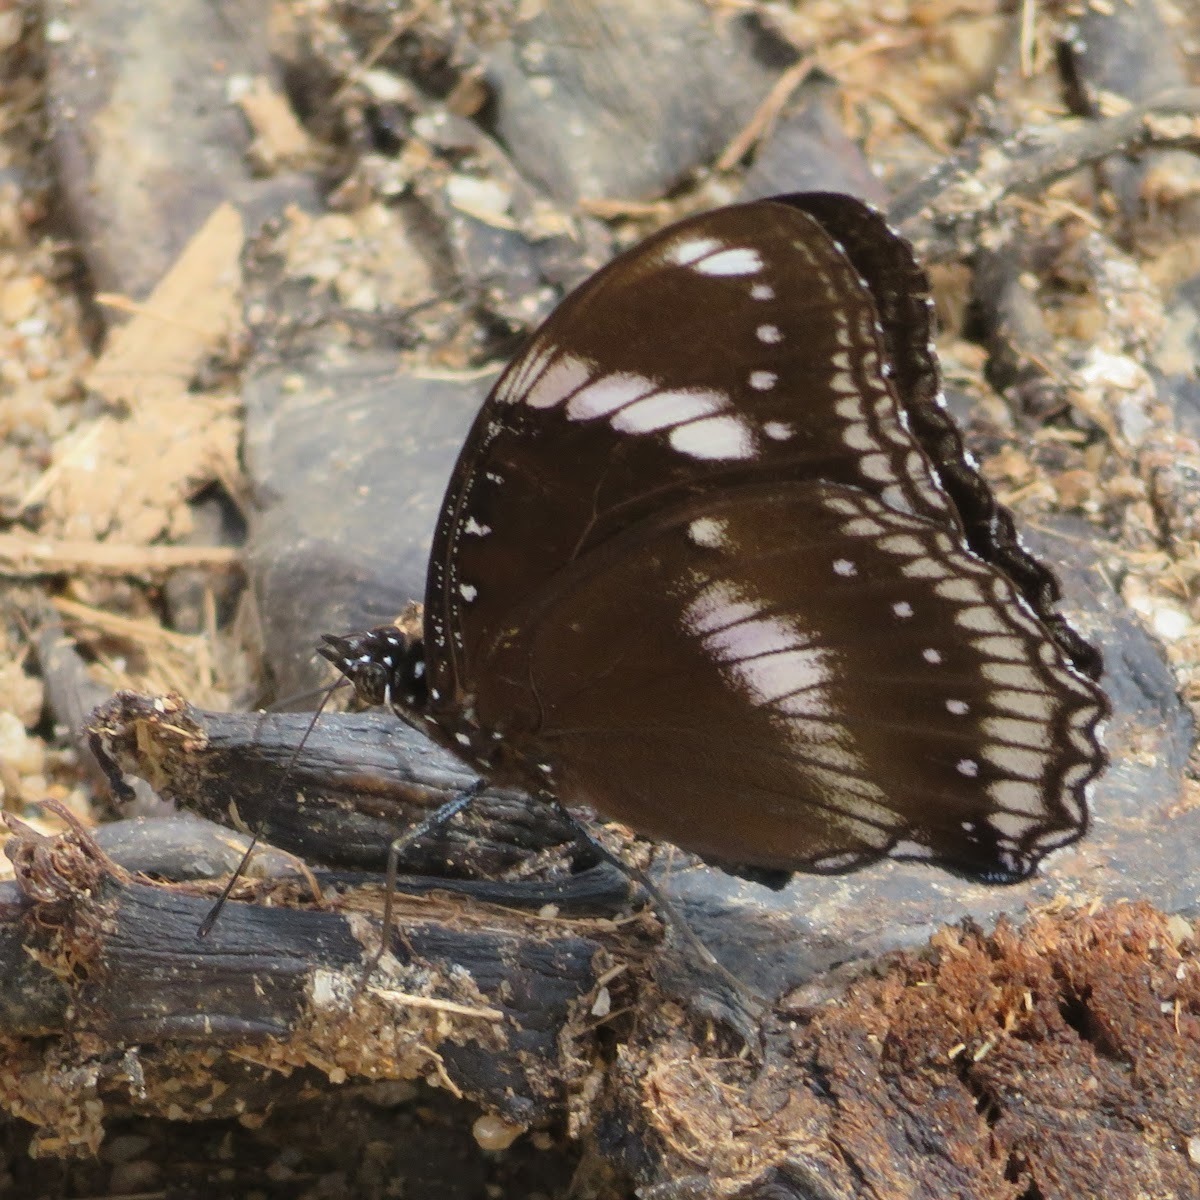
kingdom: Animalia
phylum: Arthropoda
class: Insecta
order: Lepidoptera
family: Nymphalidae
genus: Hypolimnas
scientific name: Hypolimnas bolina
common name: Great eggfly
